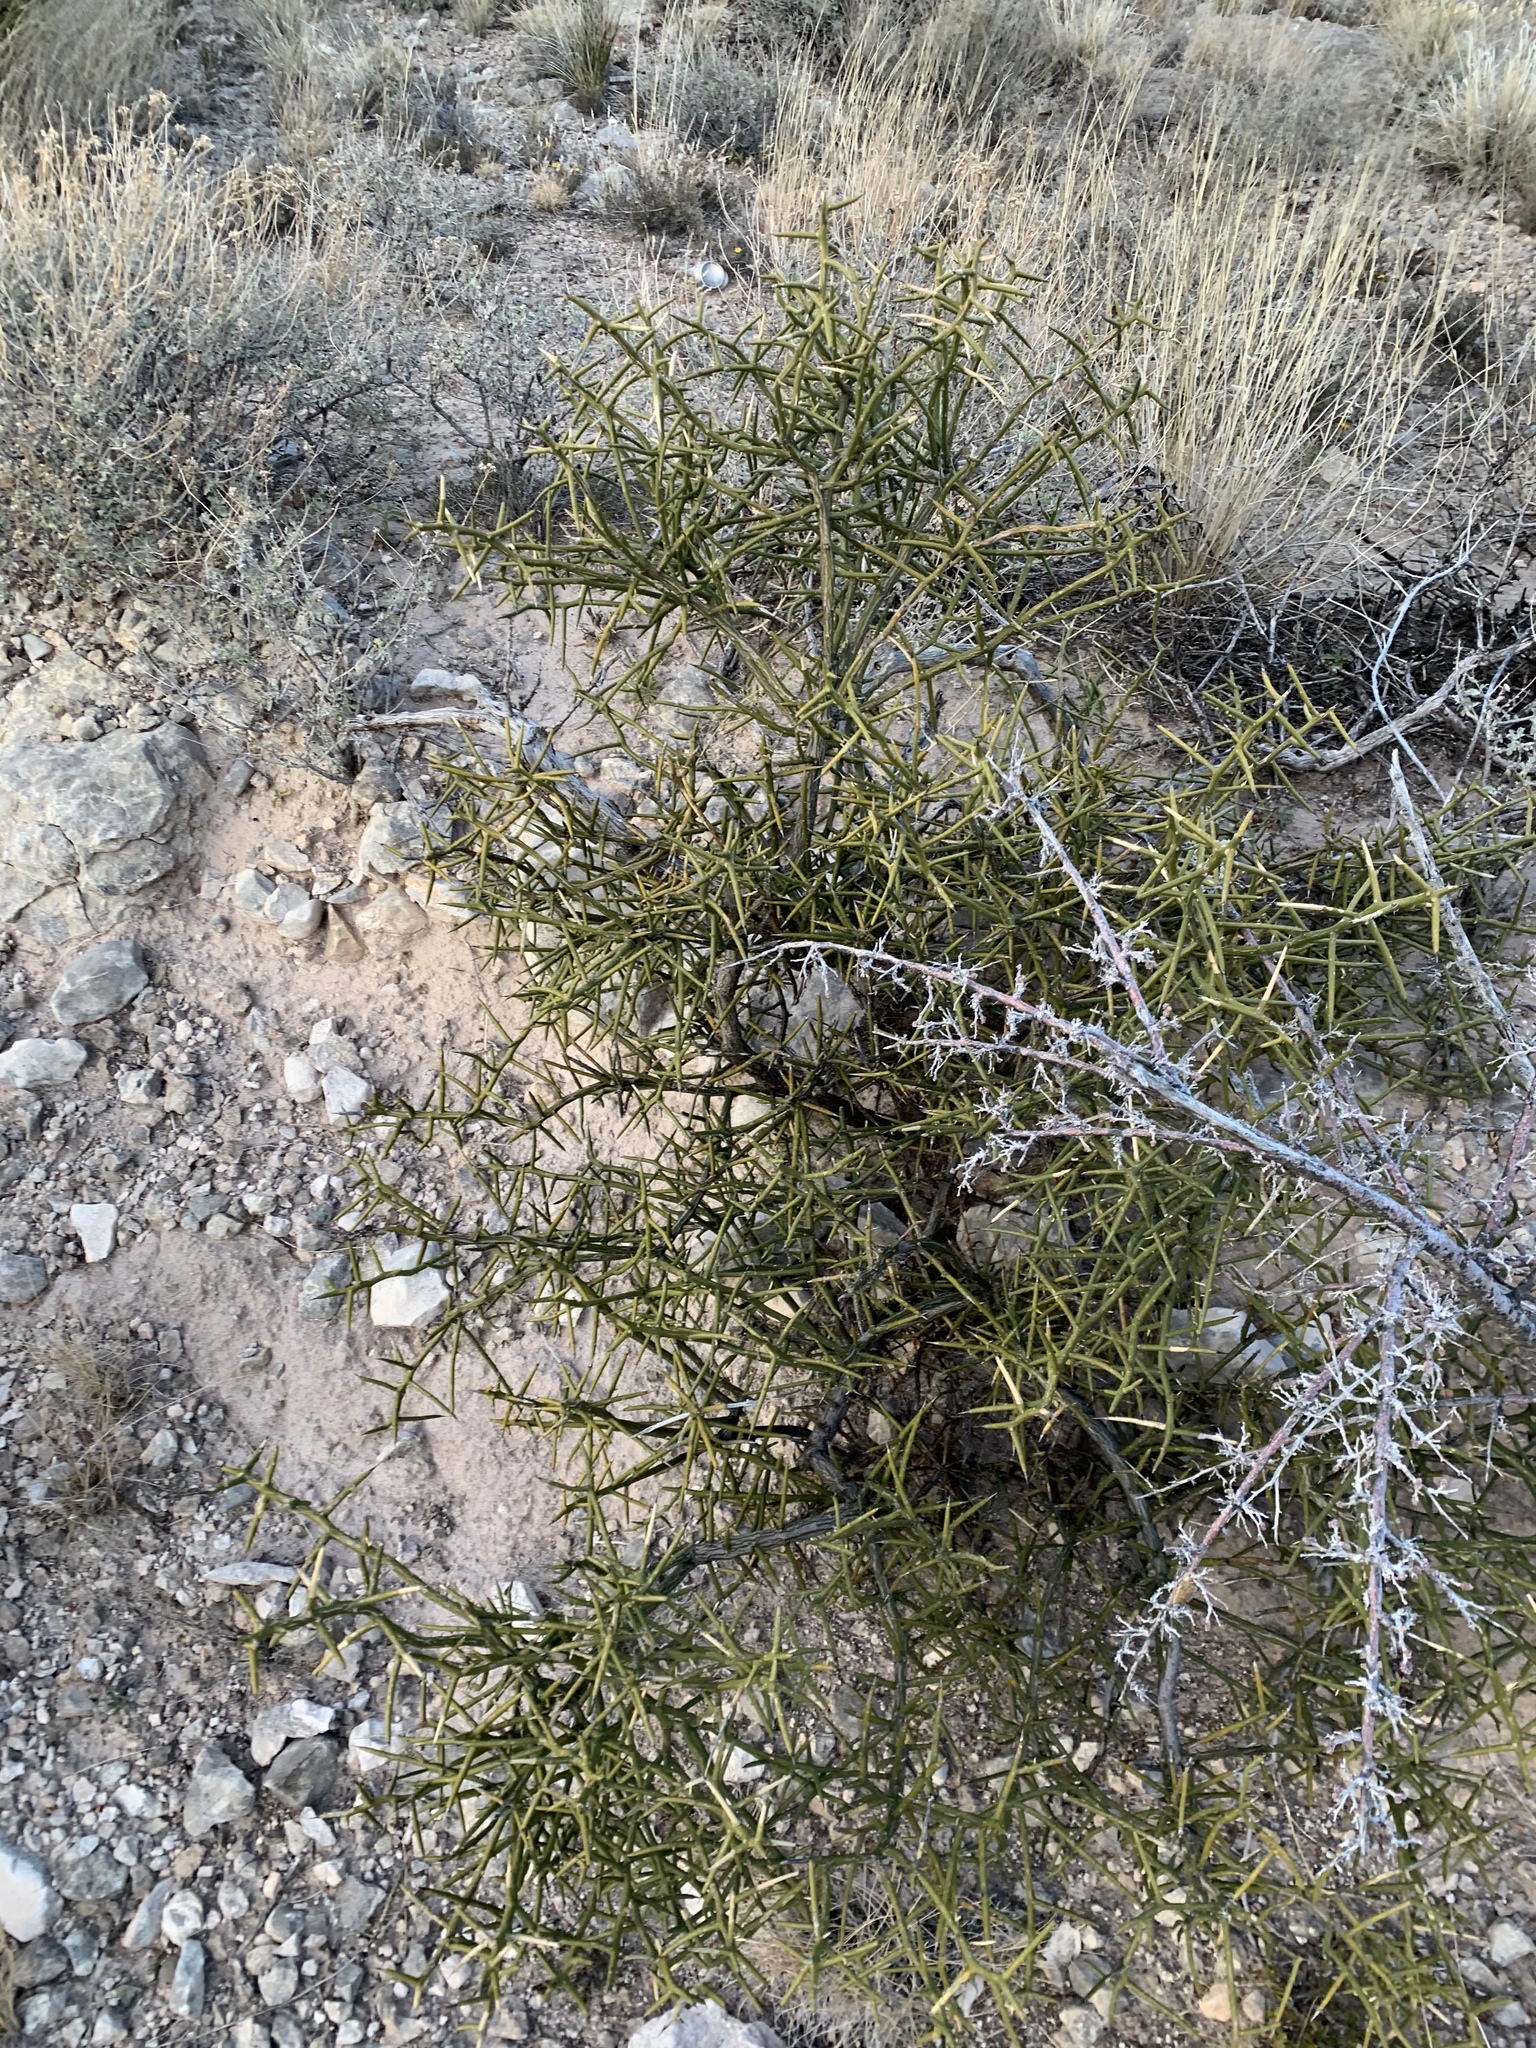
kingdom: Plantae
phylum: Tracheophyta
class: Magnoliopsida
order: Brassicales
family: Koeberliniaceae
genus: Koeberlinia
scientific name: Koeberlinia spinosa
